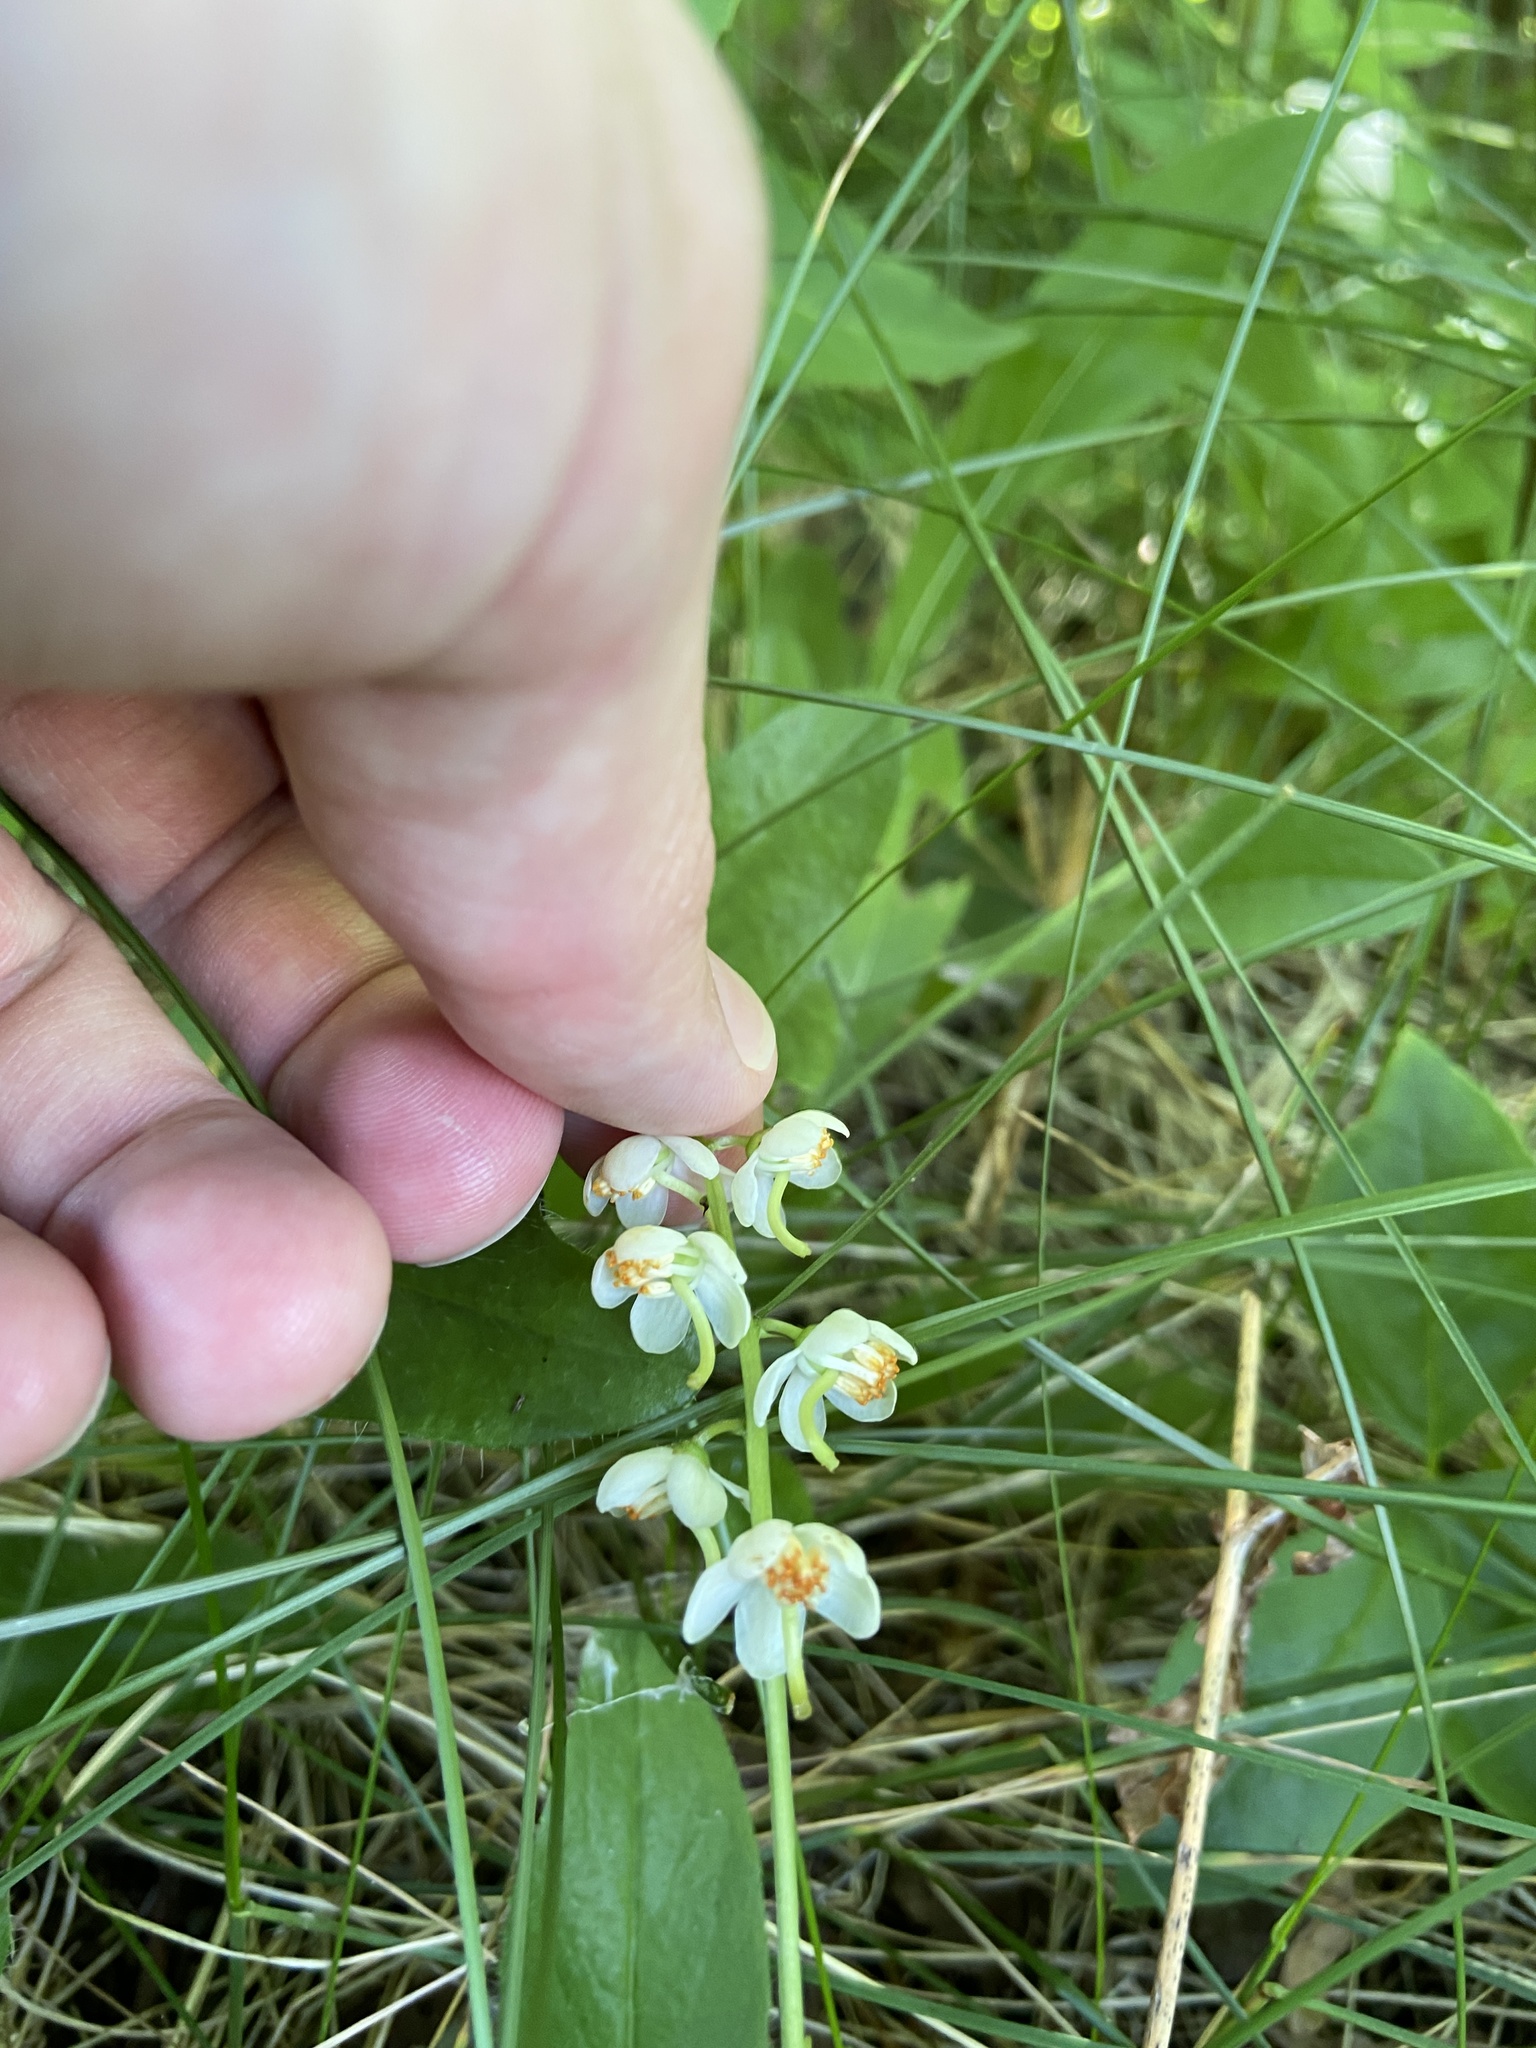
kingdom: Plantae
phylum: Tracheophyta
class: Magnoliopsida
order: Ericales
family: Ericaceae
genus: Pyrola
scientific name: Pyrola elliptica
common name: Shinleaf
